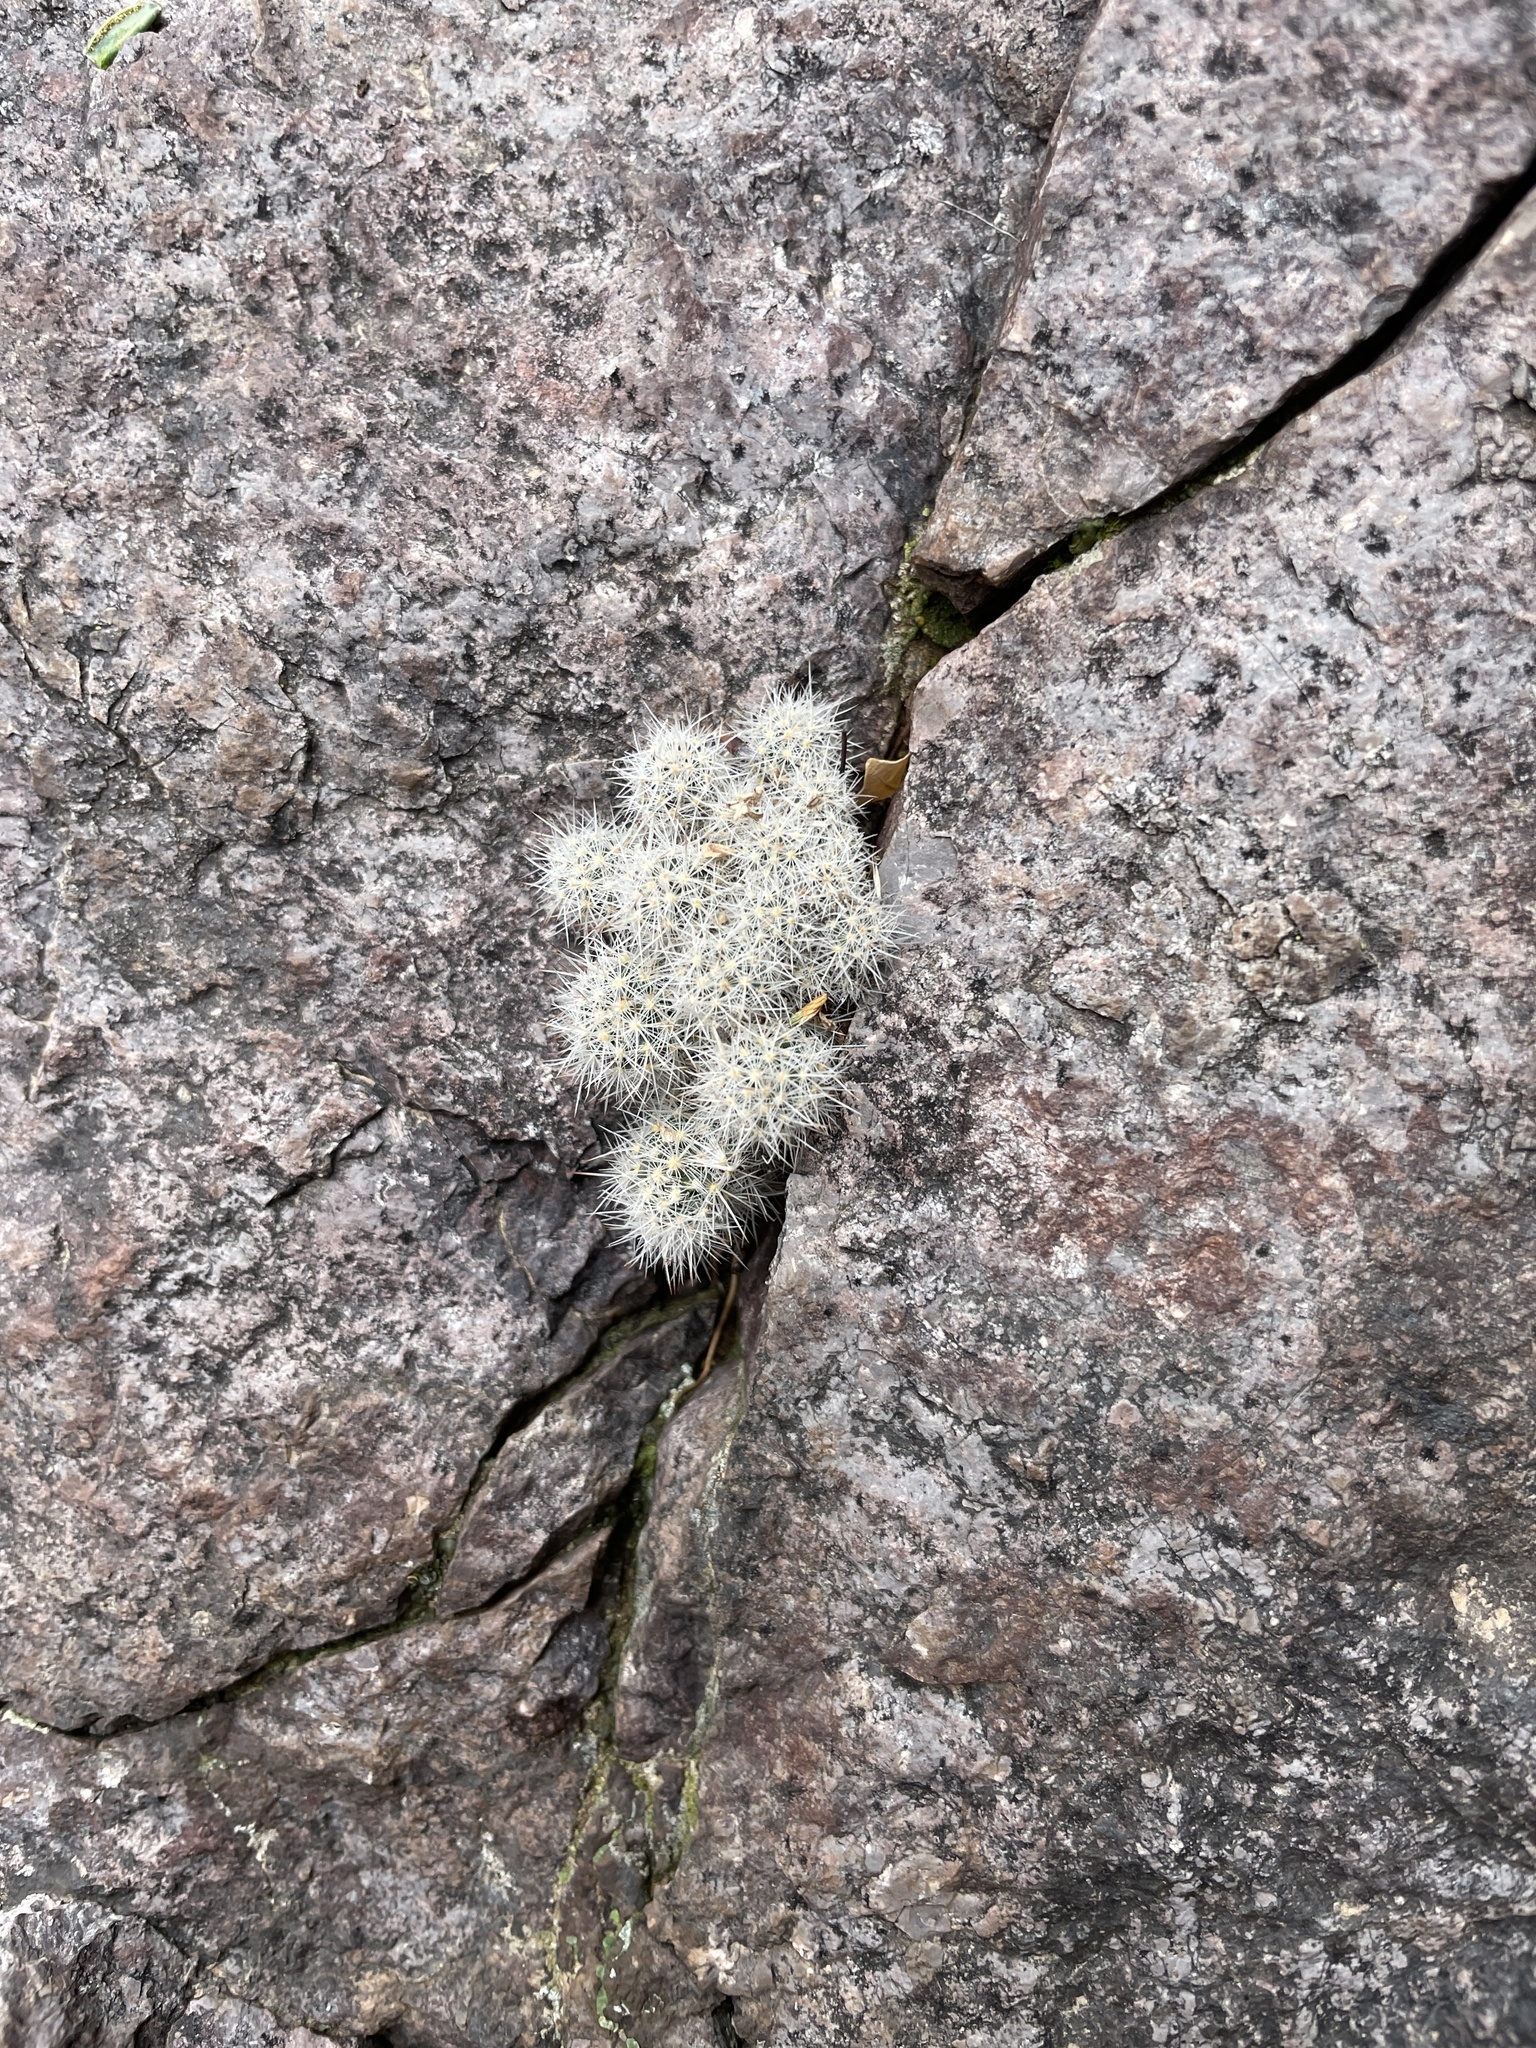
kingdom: Plantae
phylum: Tracheophyta
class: Magnoliopsida
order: Caryophyllales
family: Cactaceae
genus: Pelecyphora
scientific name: Pelecyphora sneedii
